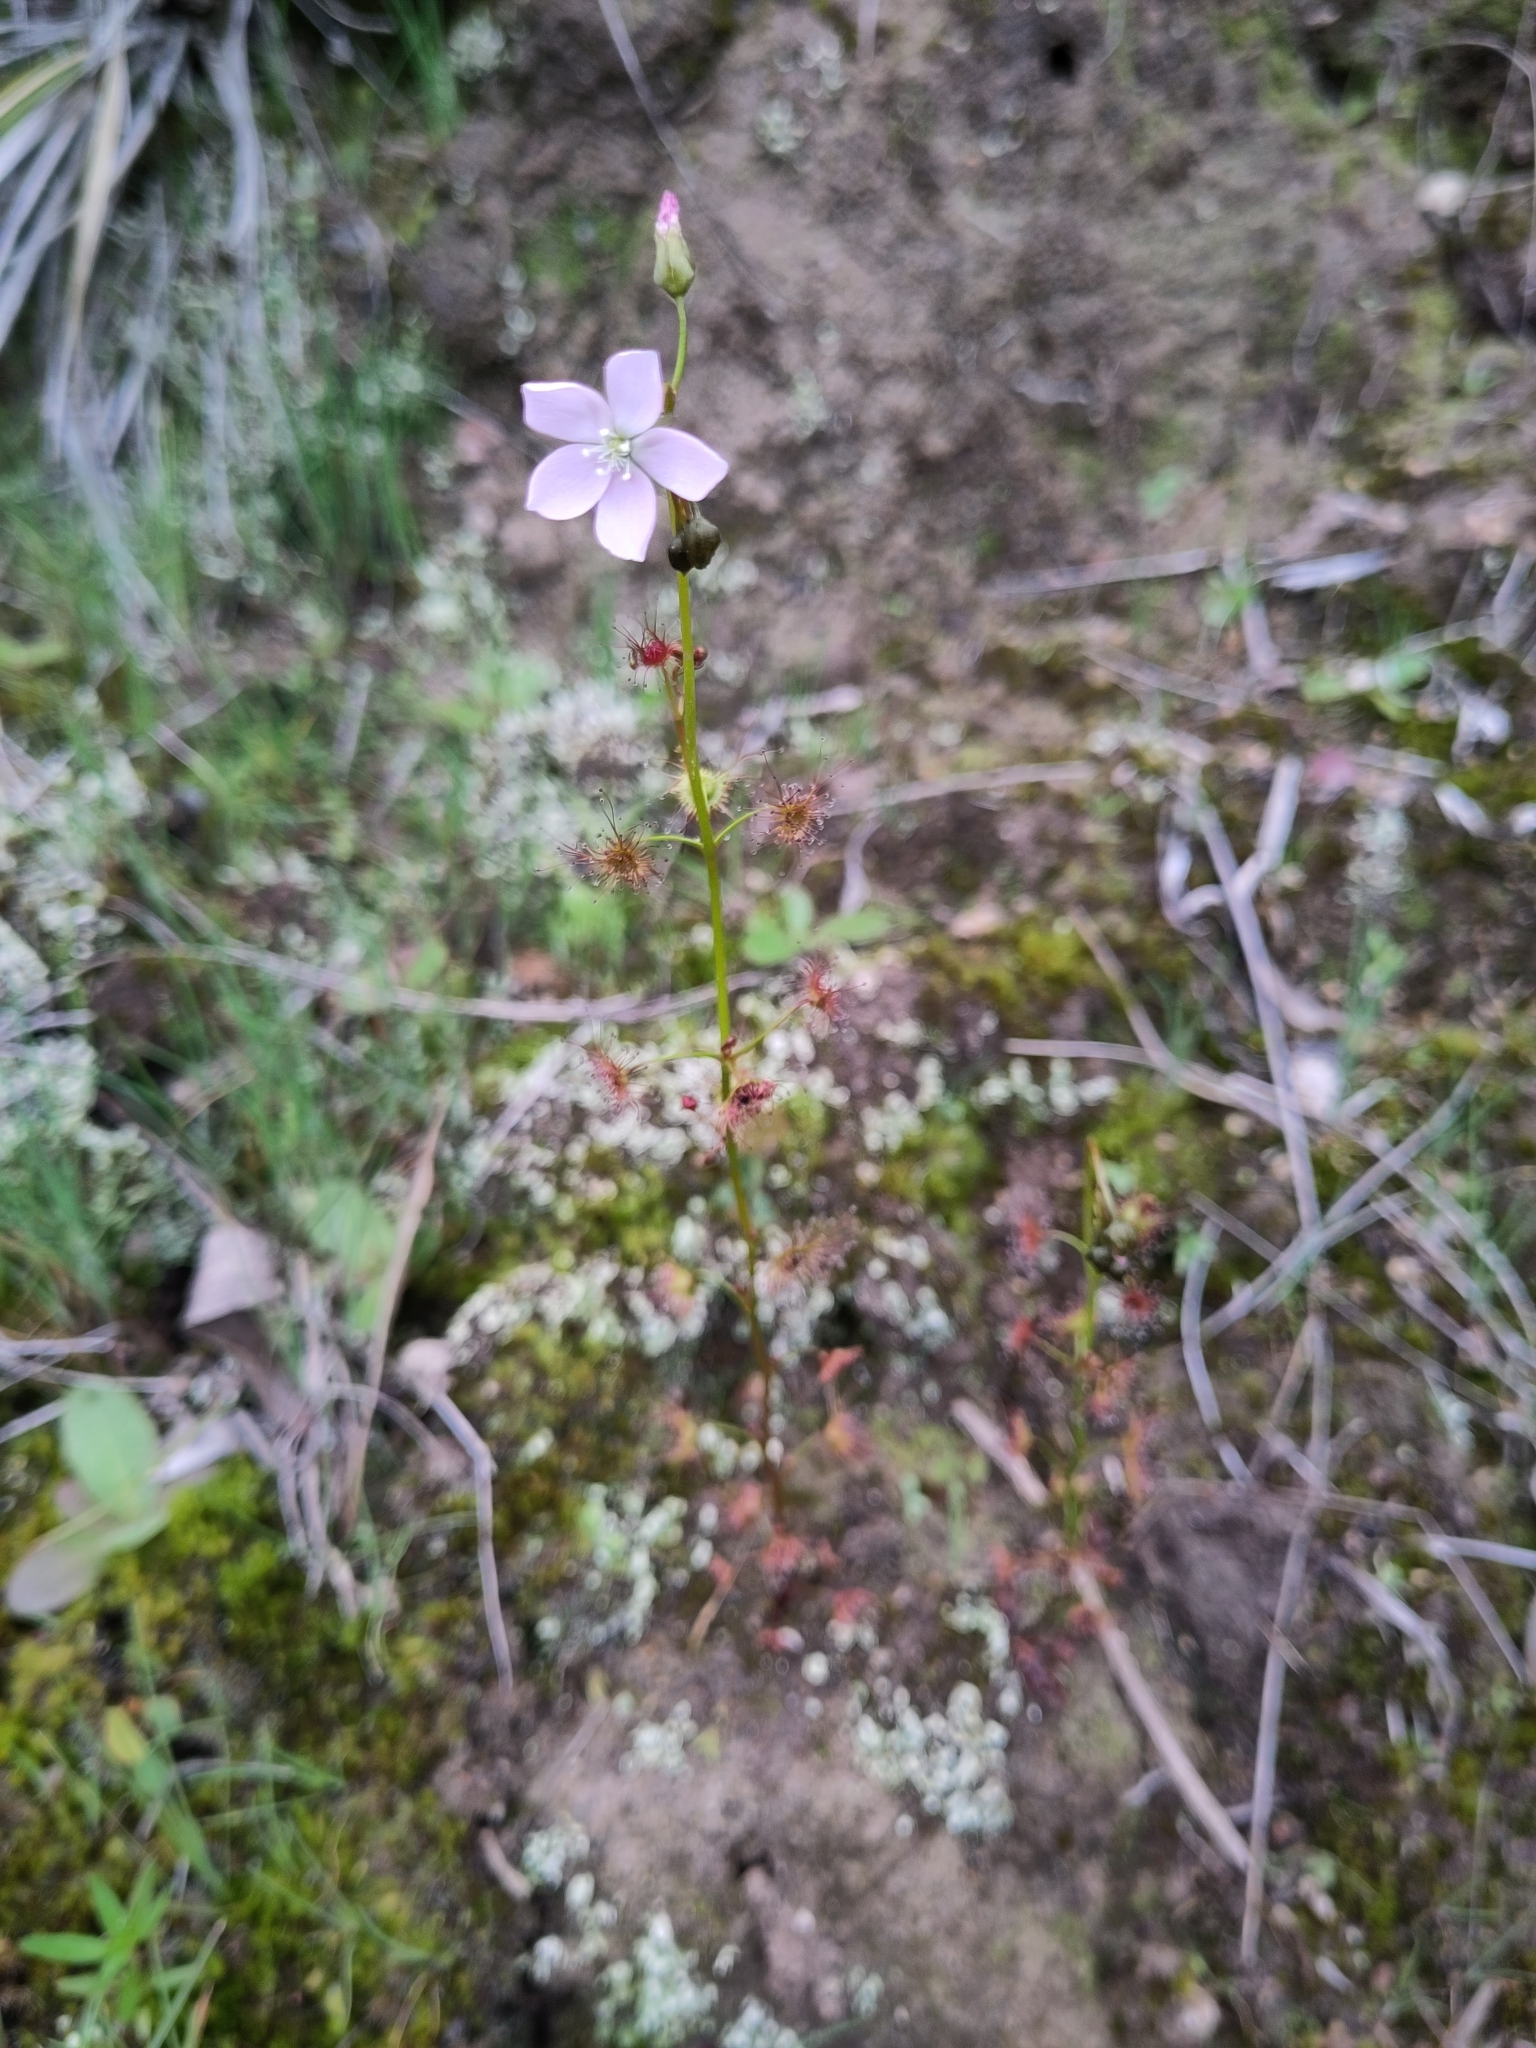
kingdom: Plantae
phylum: Tracheophyta
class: Magnoliopsida
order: Caryophyllales
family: Droseraceae
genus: Drosera
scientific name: Drosera peltata
